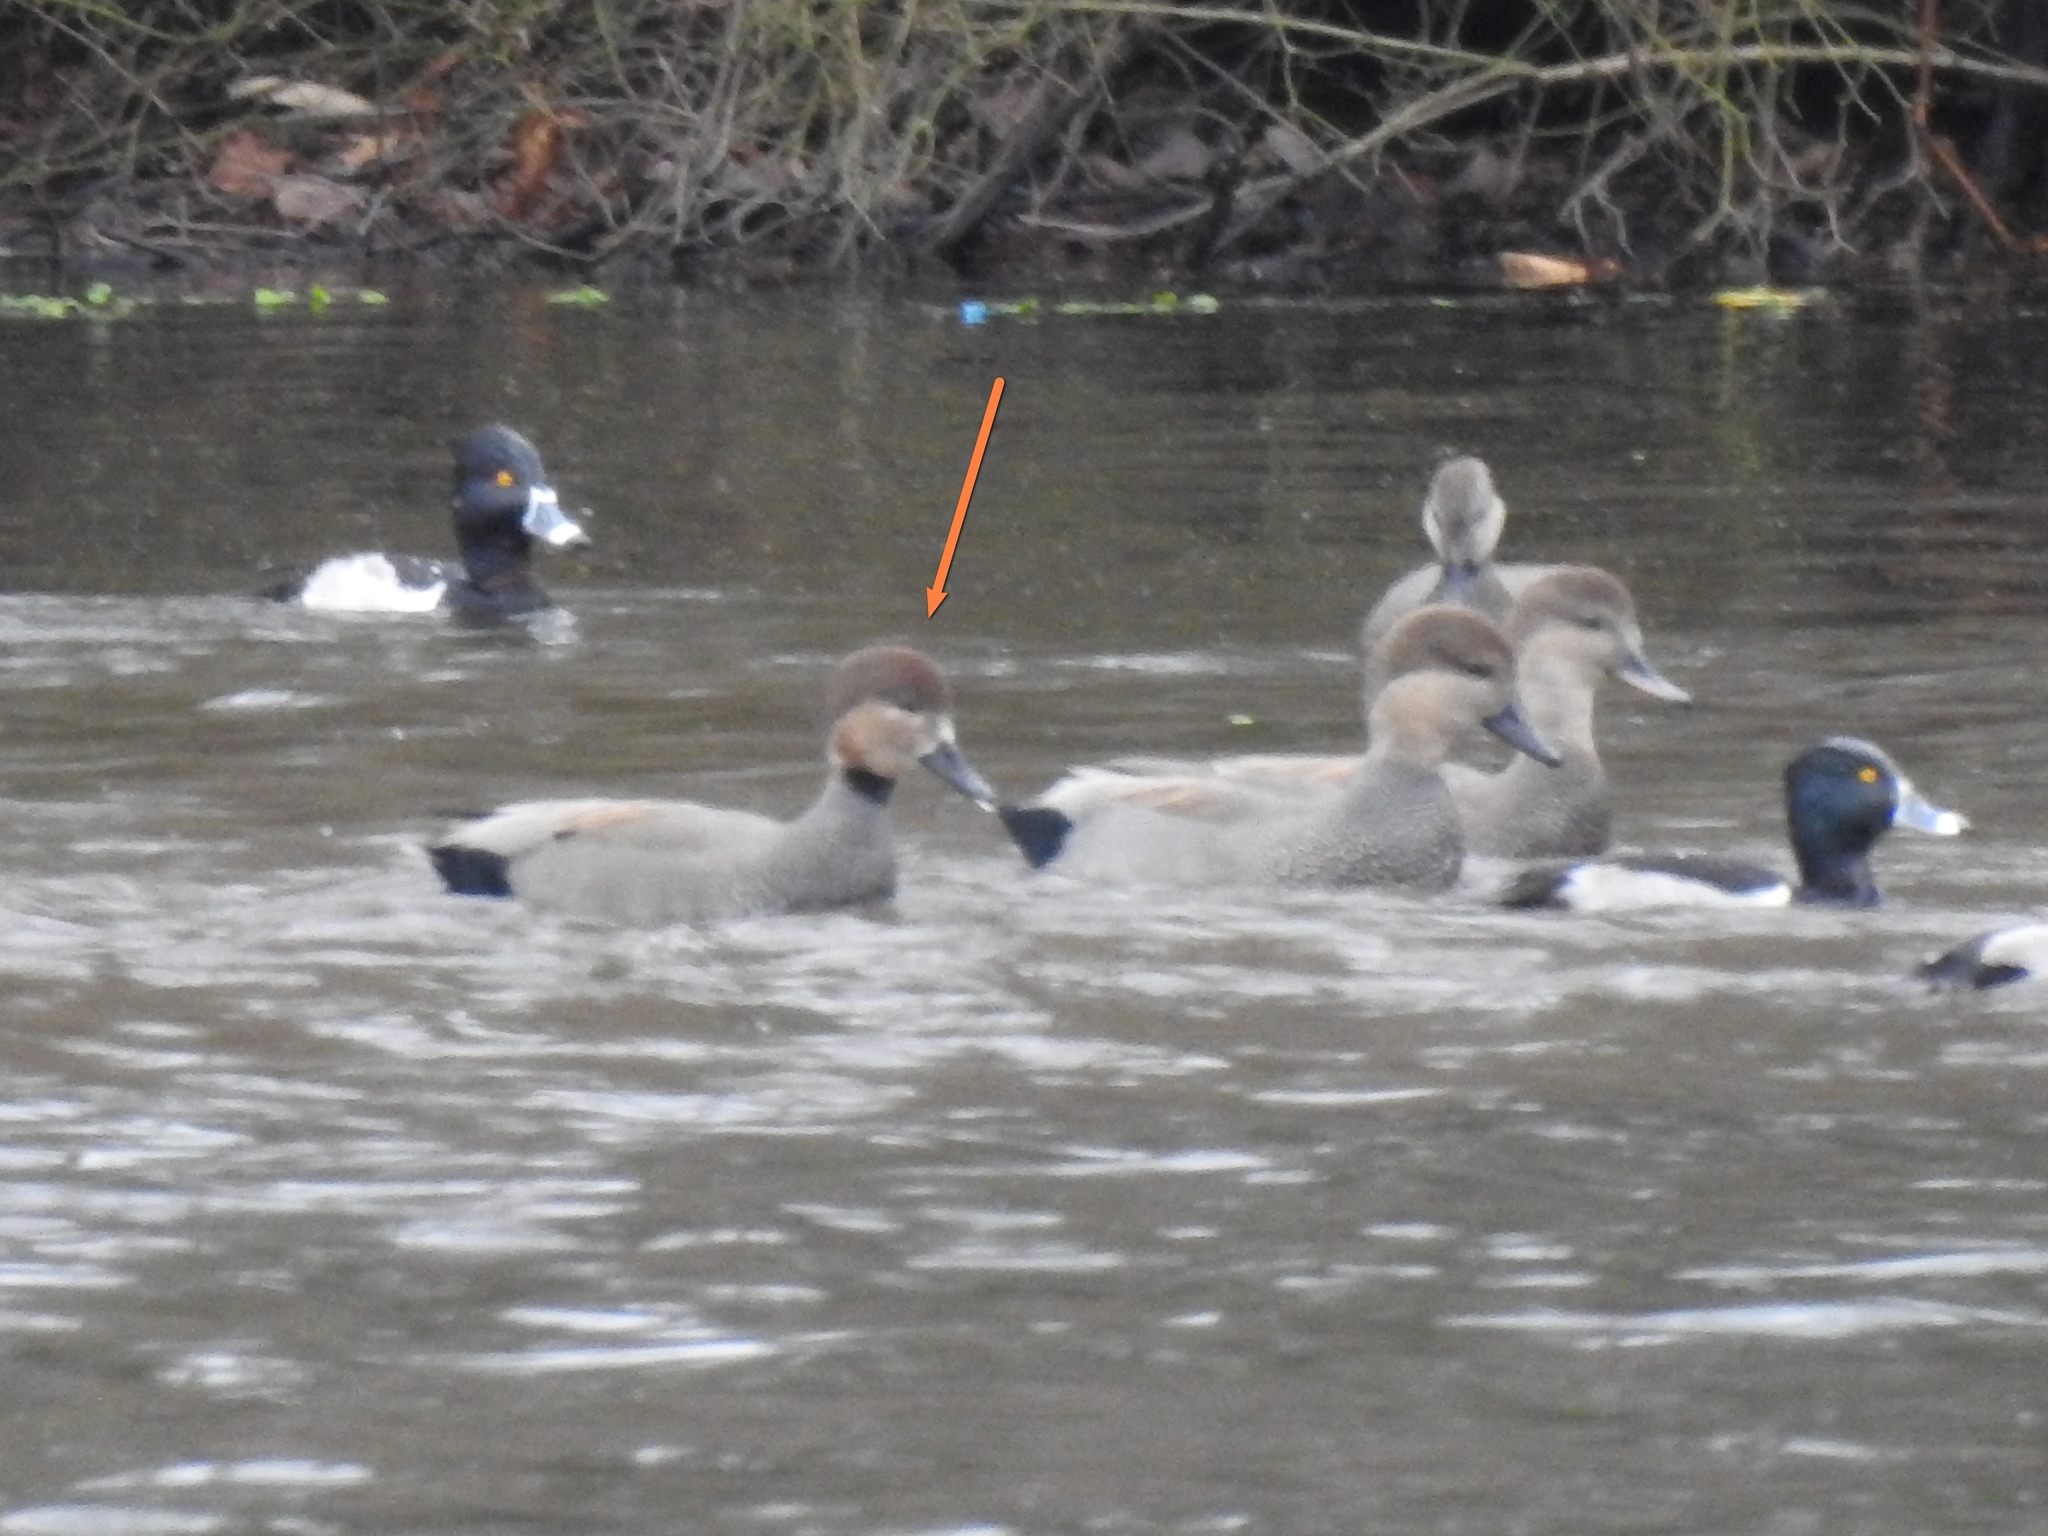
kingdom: Animalia
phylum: Chordata
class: Aves
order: Anseriformes
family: Anatidae
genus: Mareca
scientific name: Mareca strepera
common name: Gadwall
